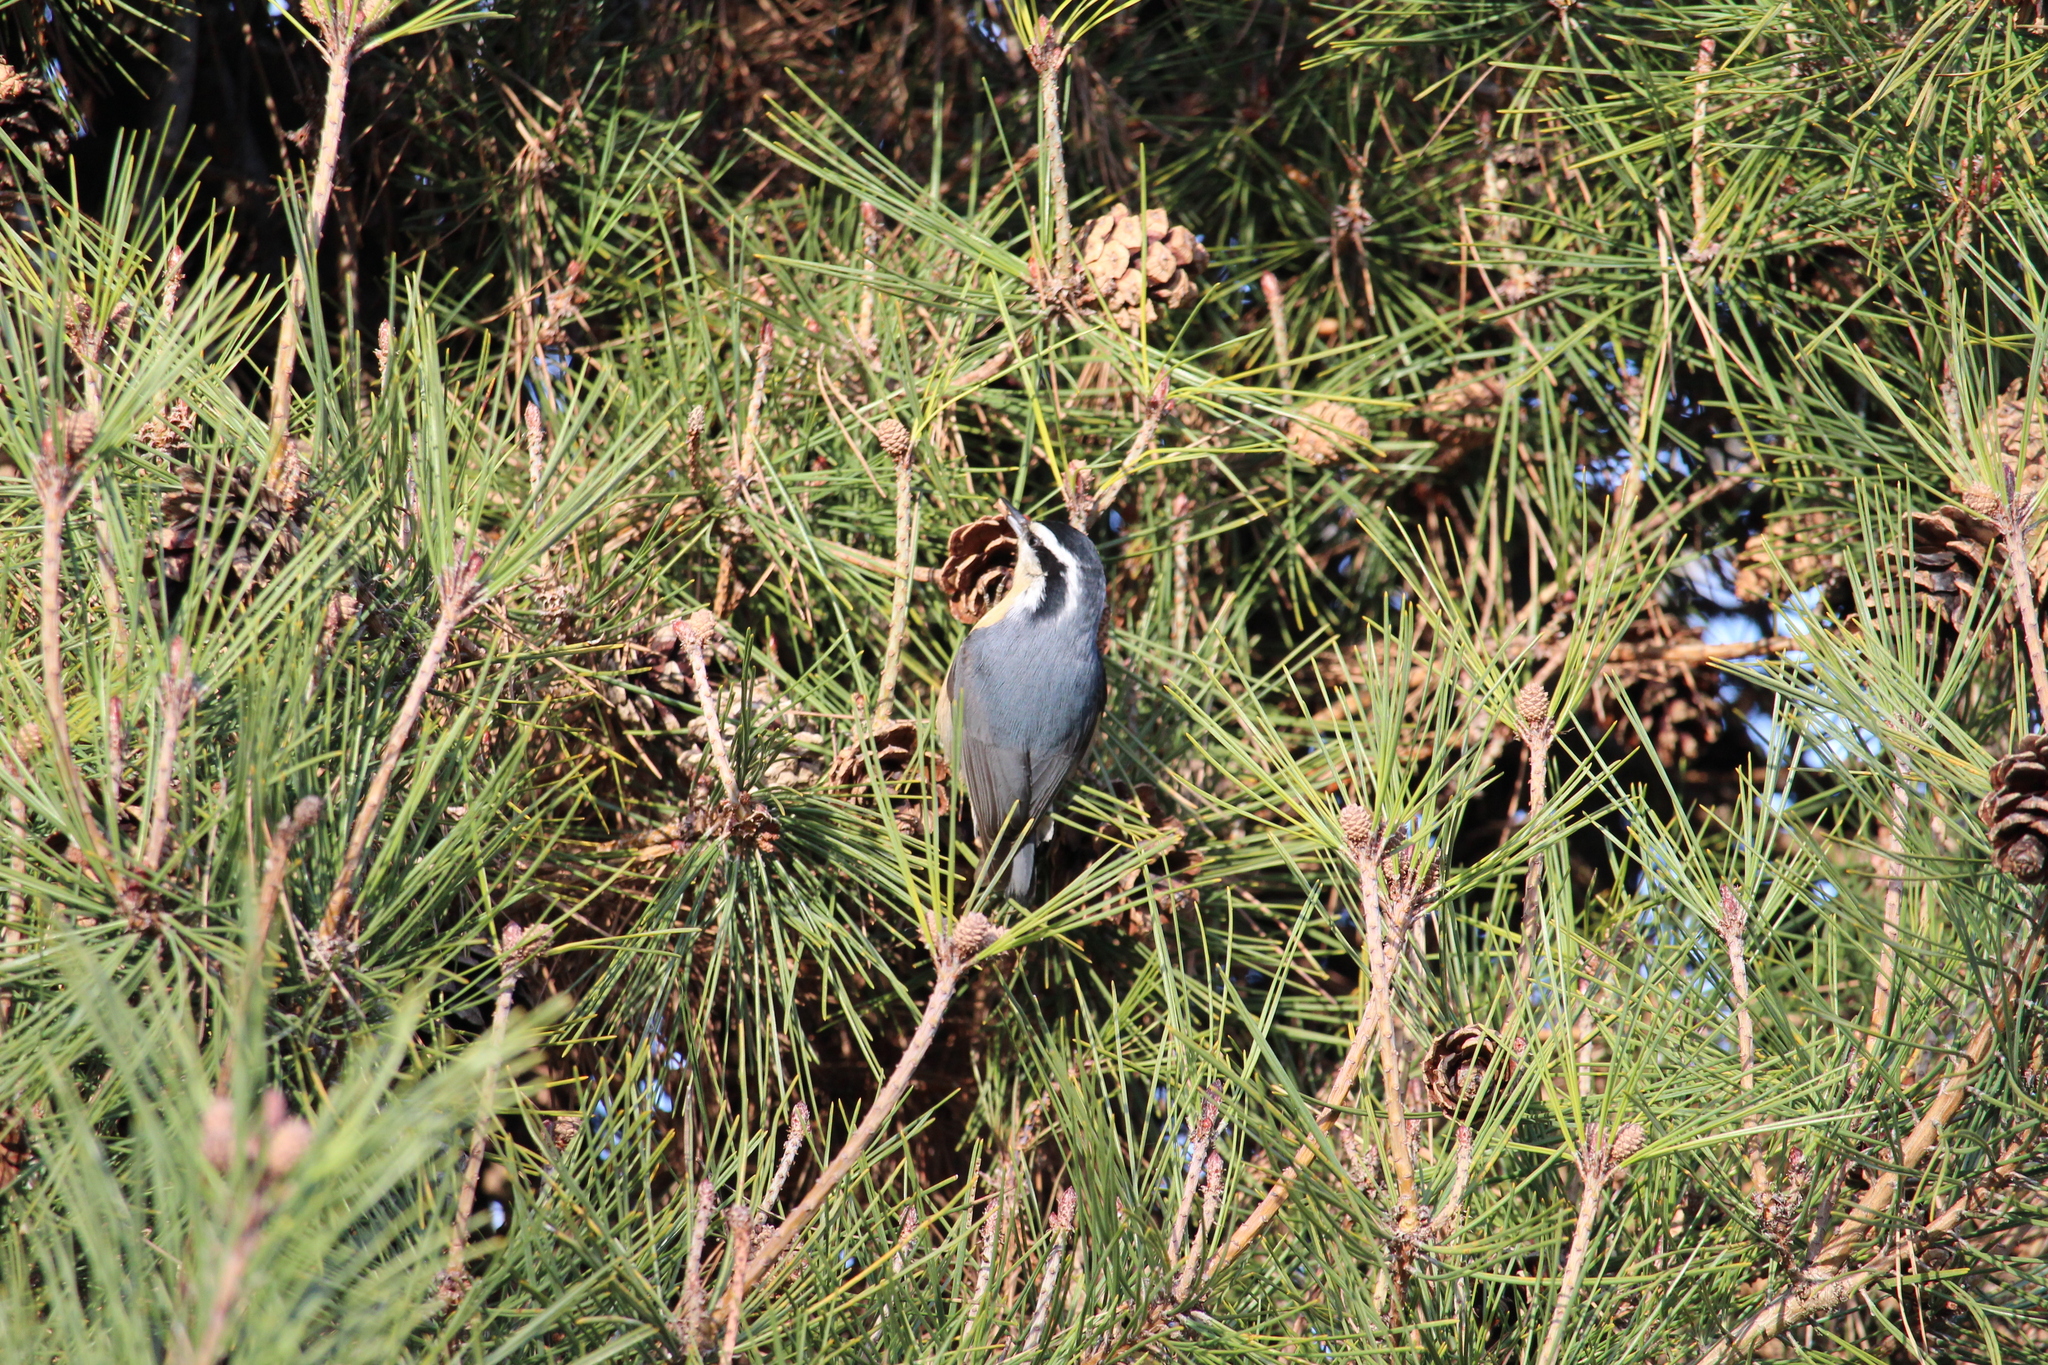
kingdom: Animalia
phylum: Chordata
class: Aves
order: Passeriformes
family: Sittidae
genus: Sitta
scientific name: Sitta canadensis
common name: Red-breasted nuthatch
